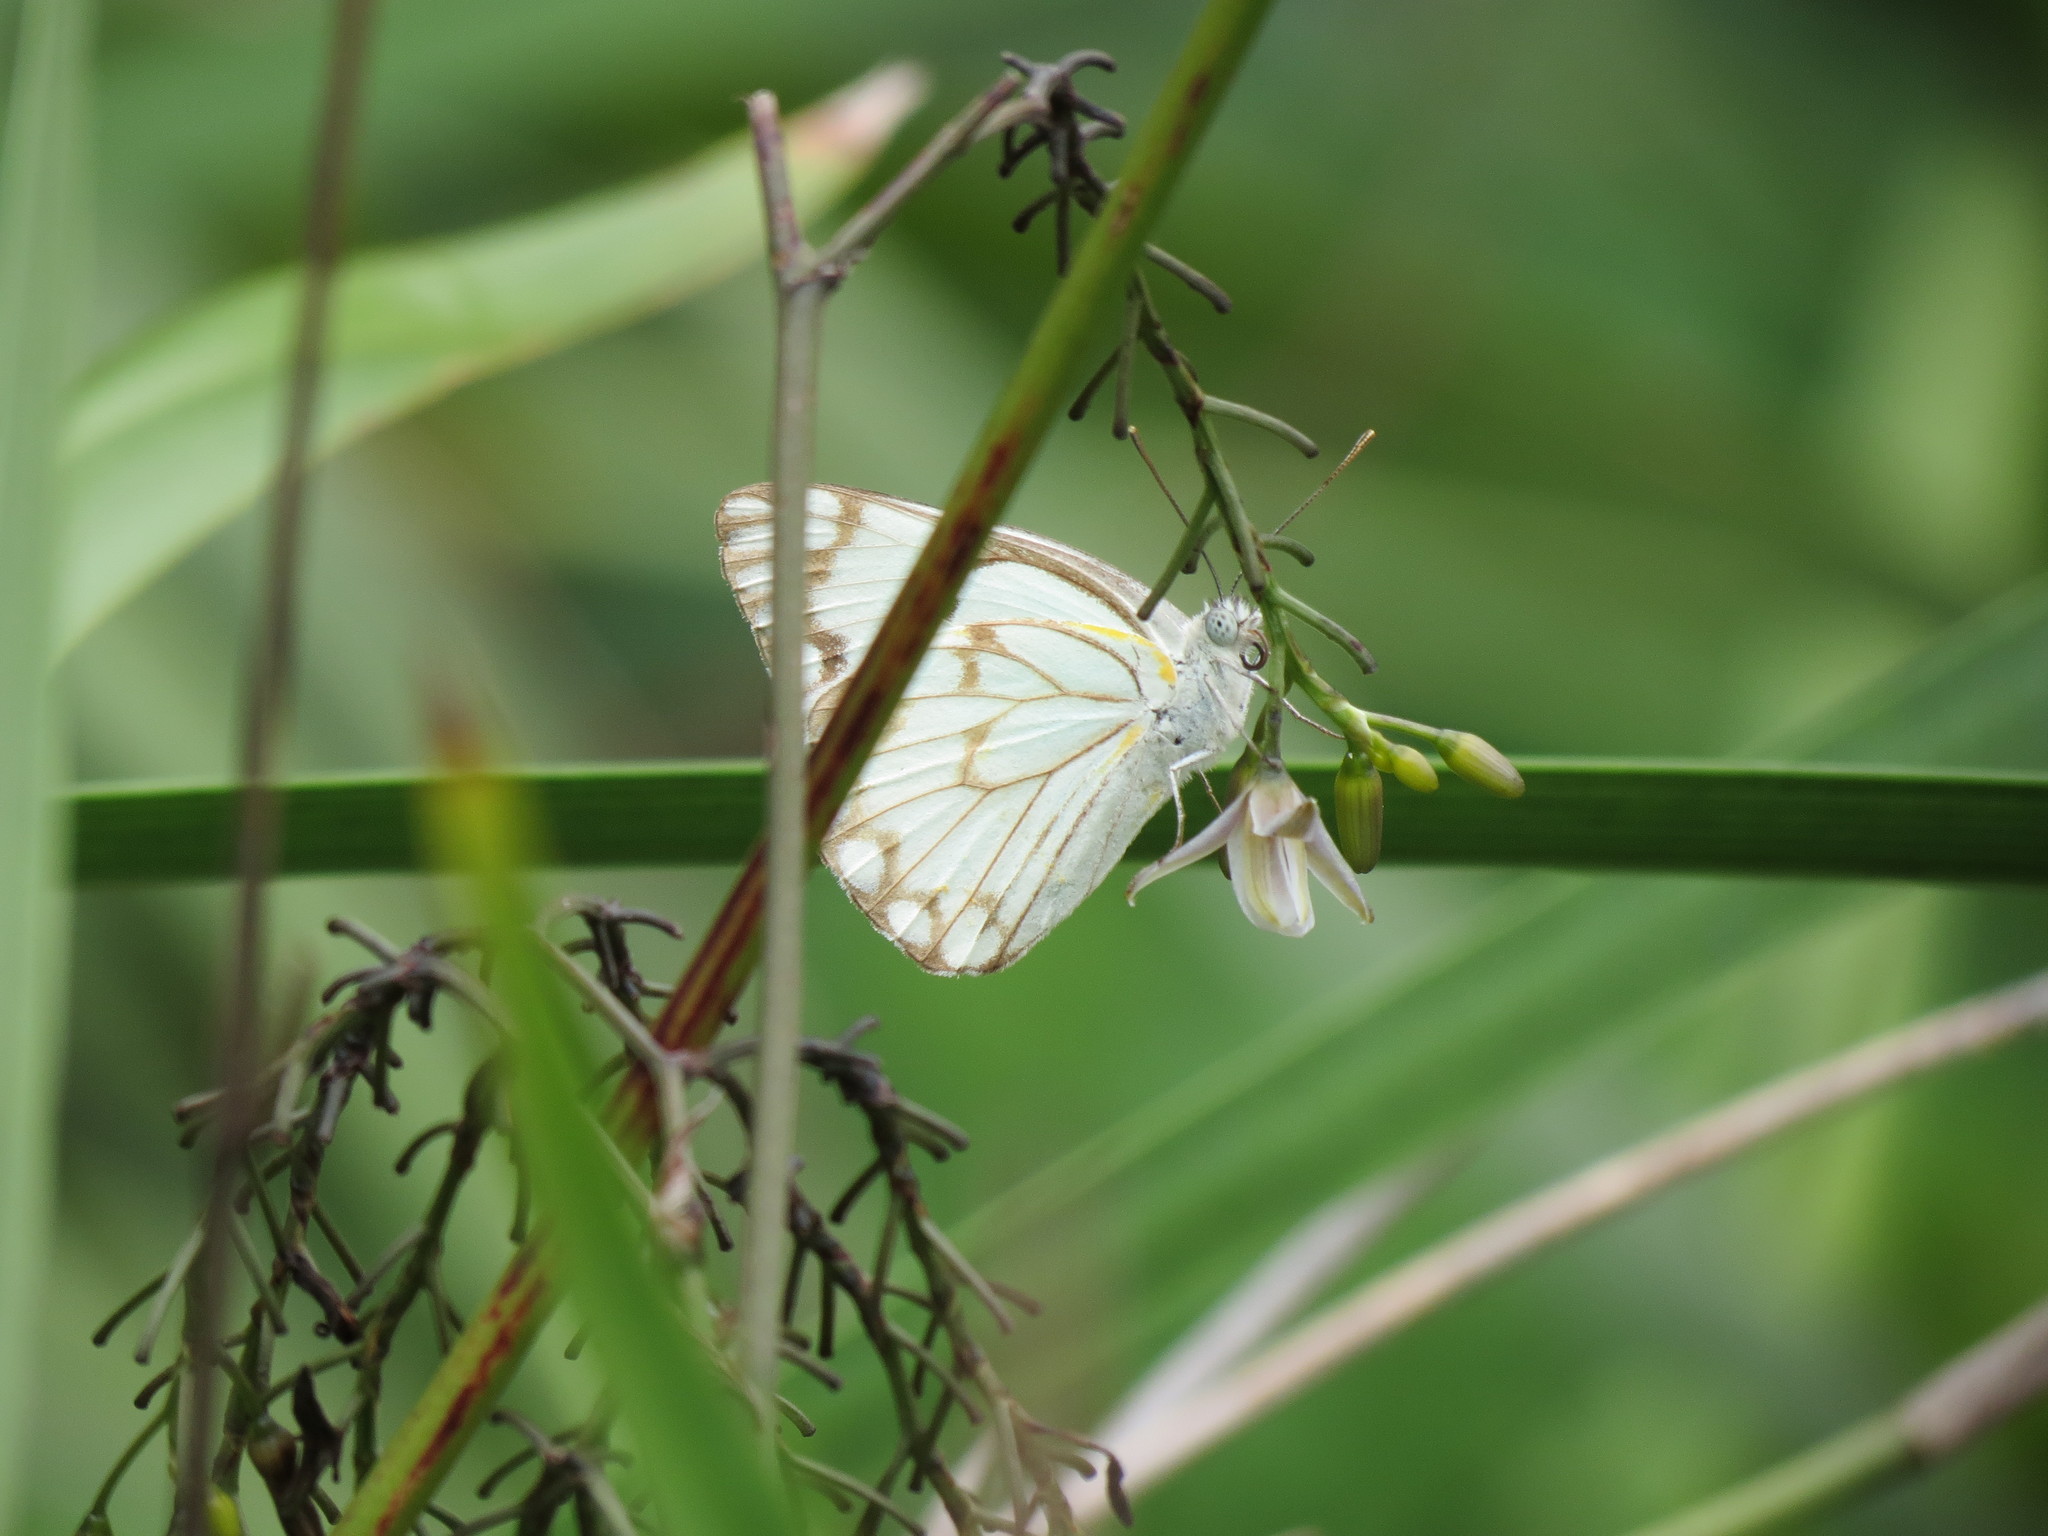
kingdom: Animalia
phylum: Arthropoda
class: Insecta
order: Lepidoptera
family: Pieridae
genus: Belenois
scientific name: Belenois aurota
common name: Brown-veined white
